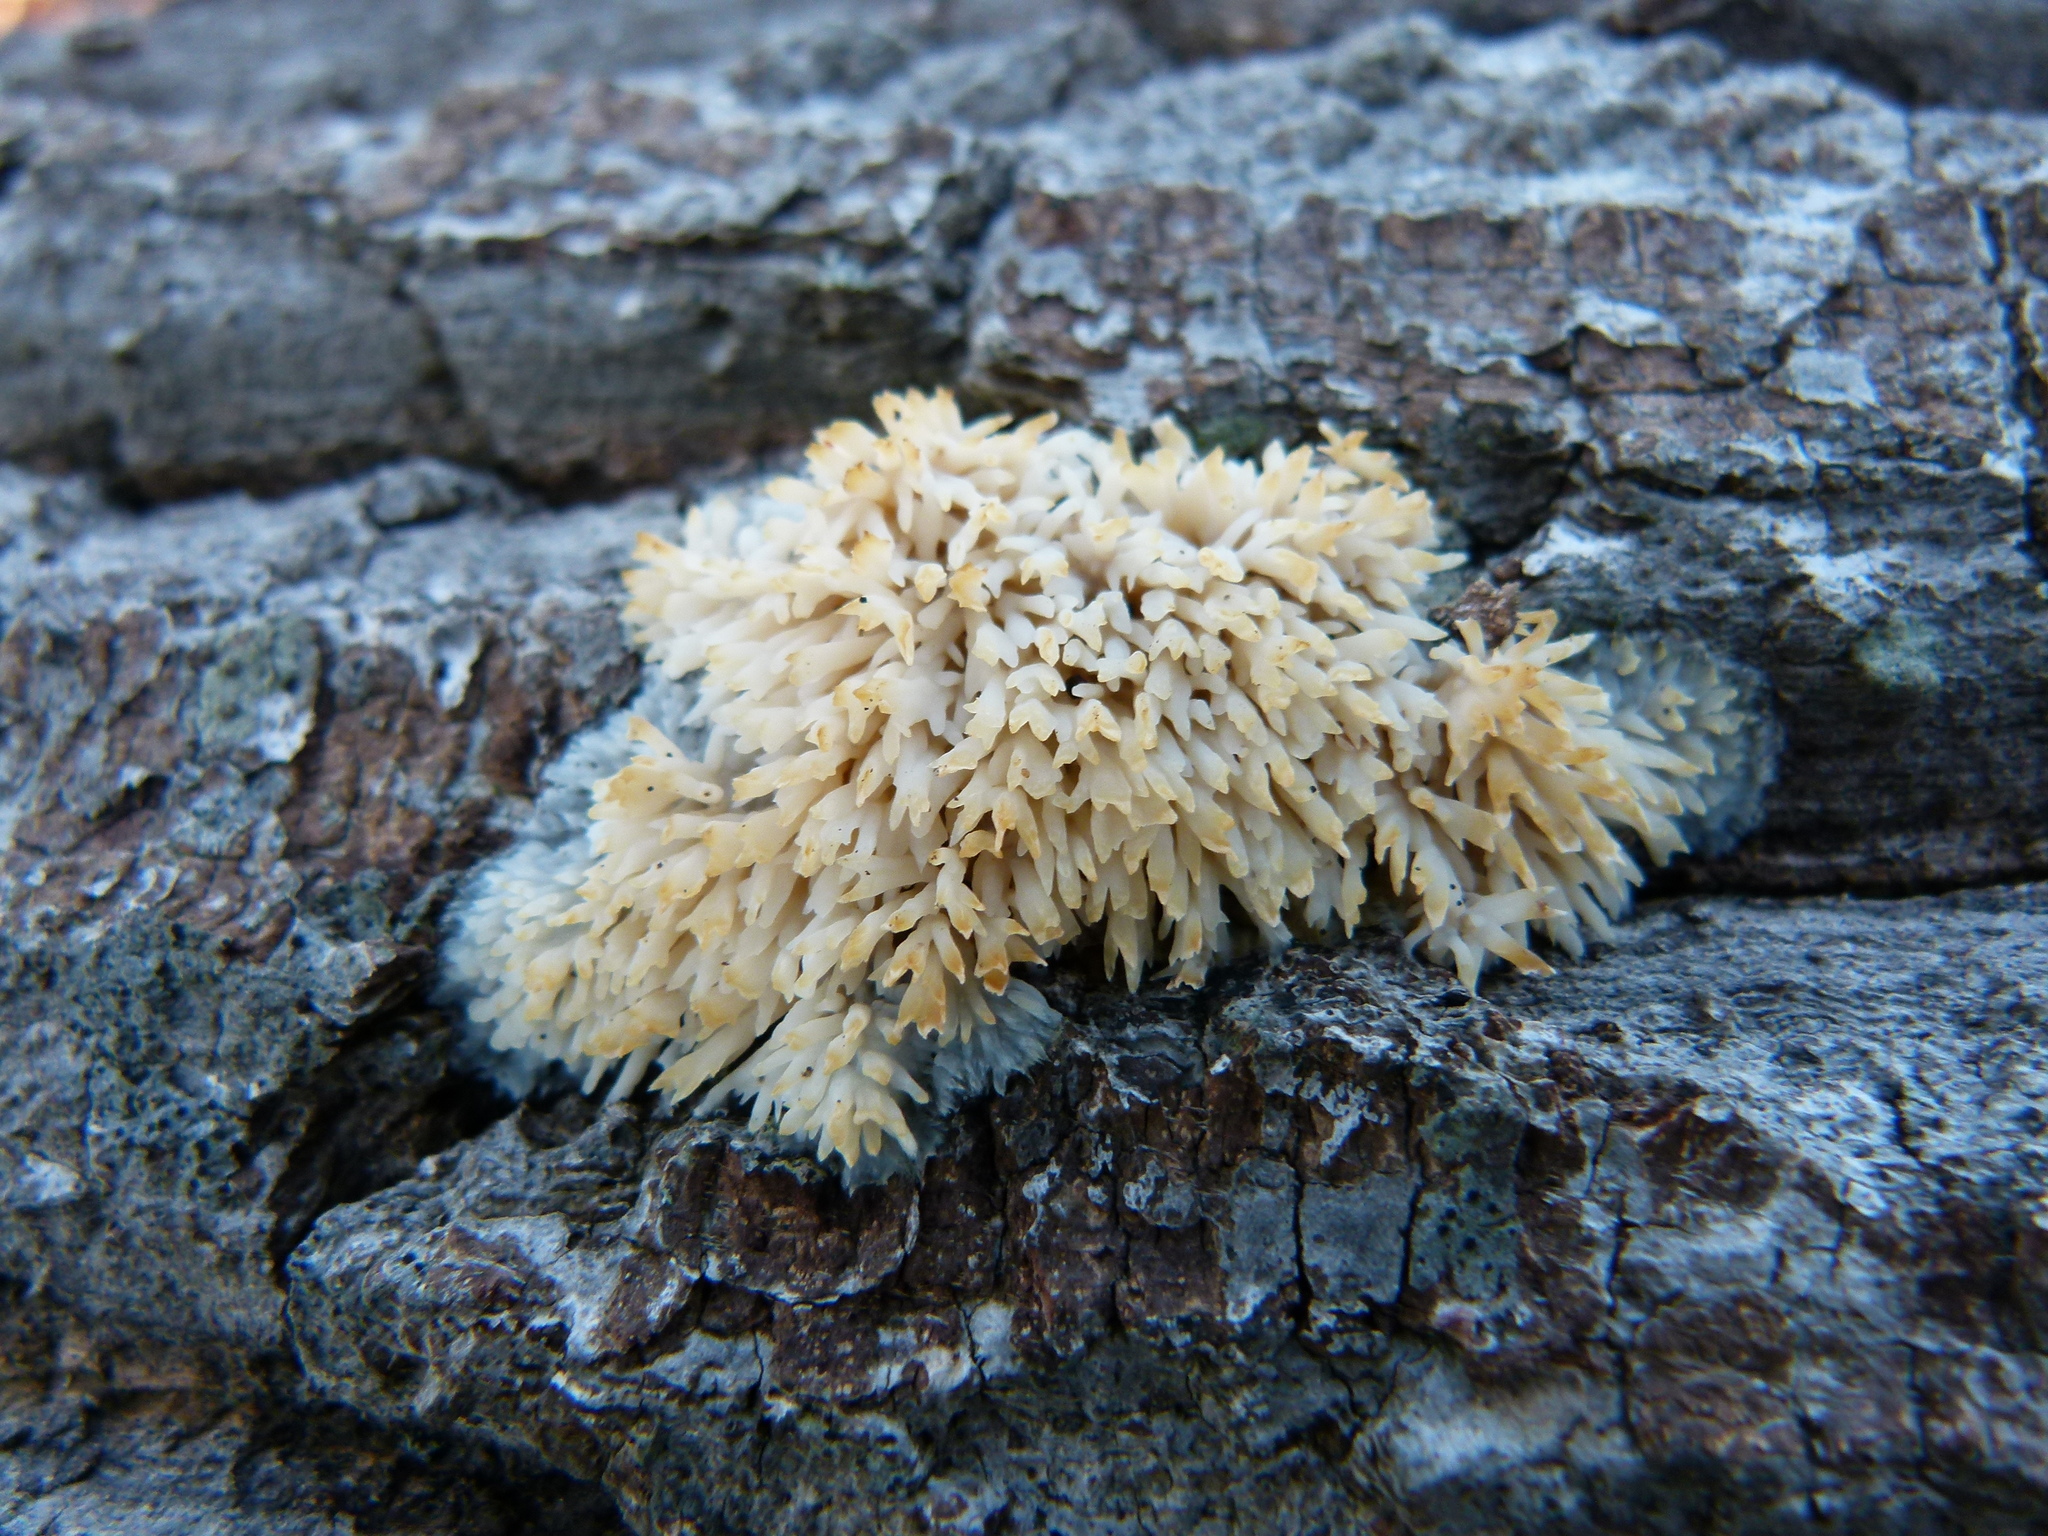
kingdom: Fungi
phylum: Basidiomycota
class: Agaricomycetes
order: Agaricales
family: Radulomycetaceae
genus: Radulomyces
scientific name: Radulomyces copelandii
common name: Asian beauty
